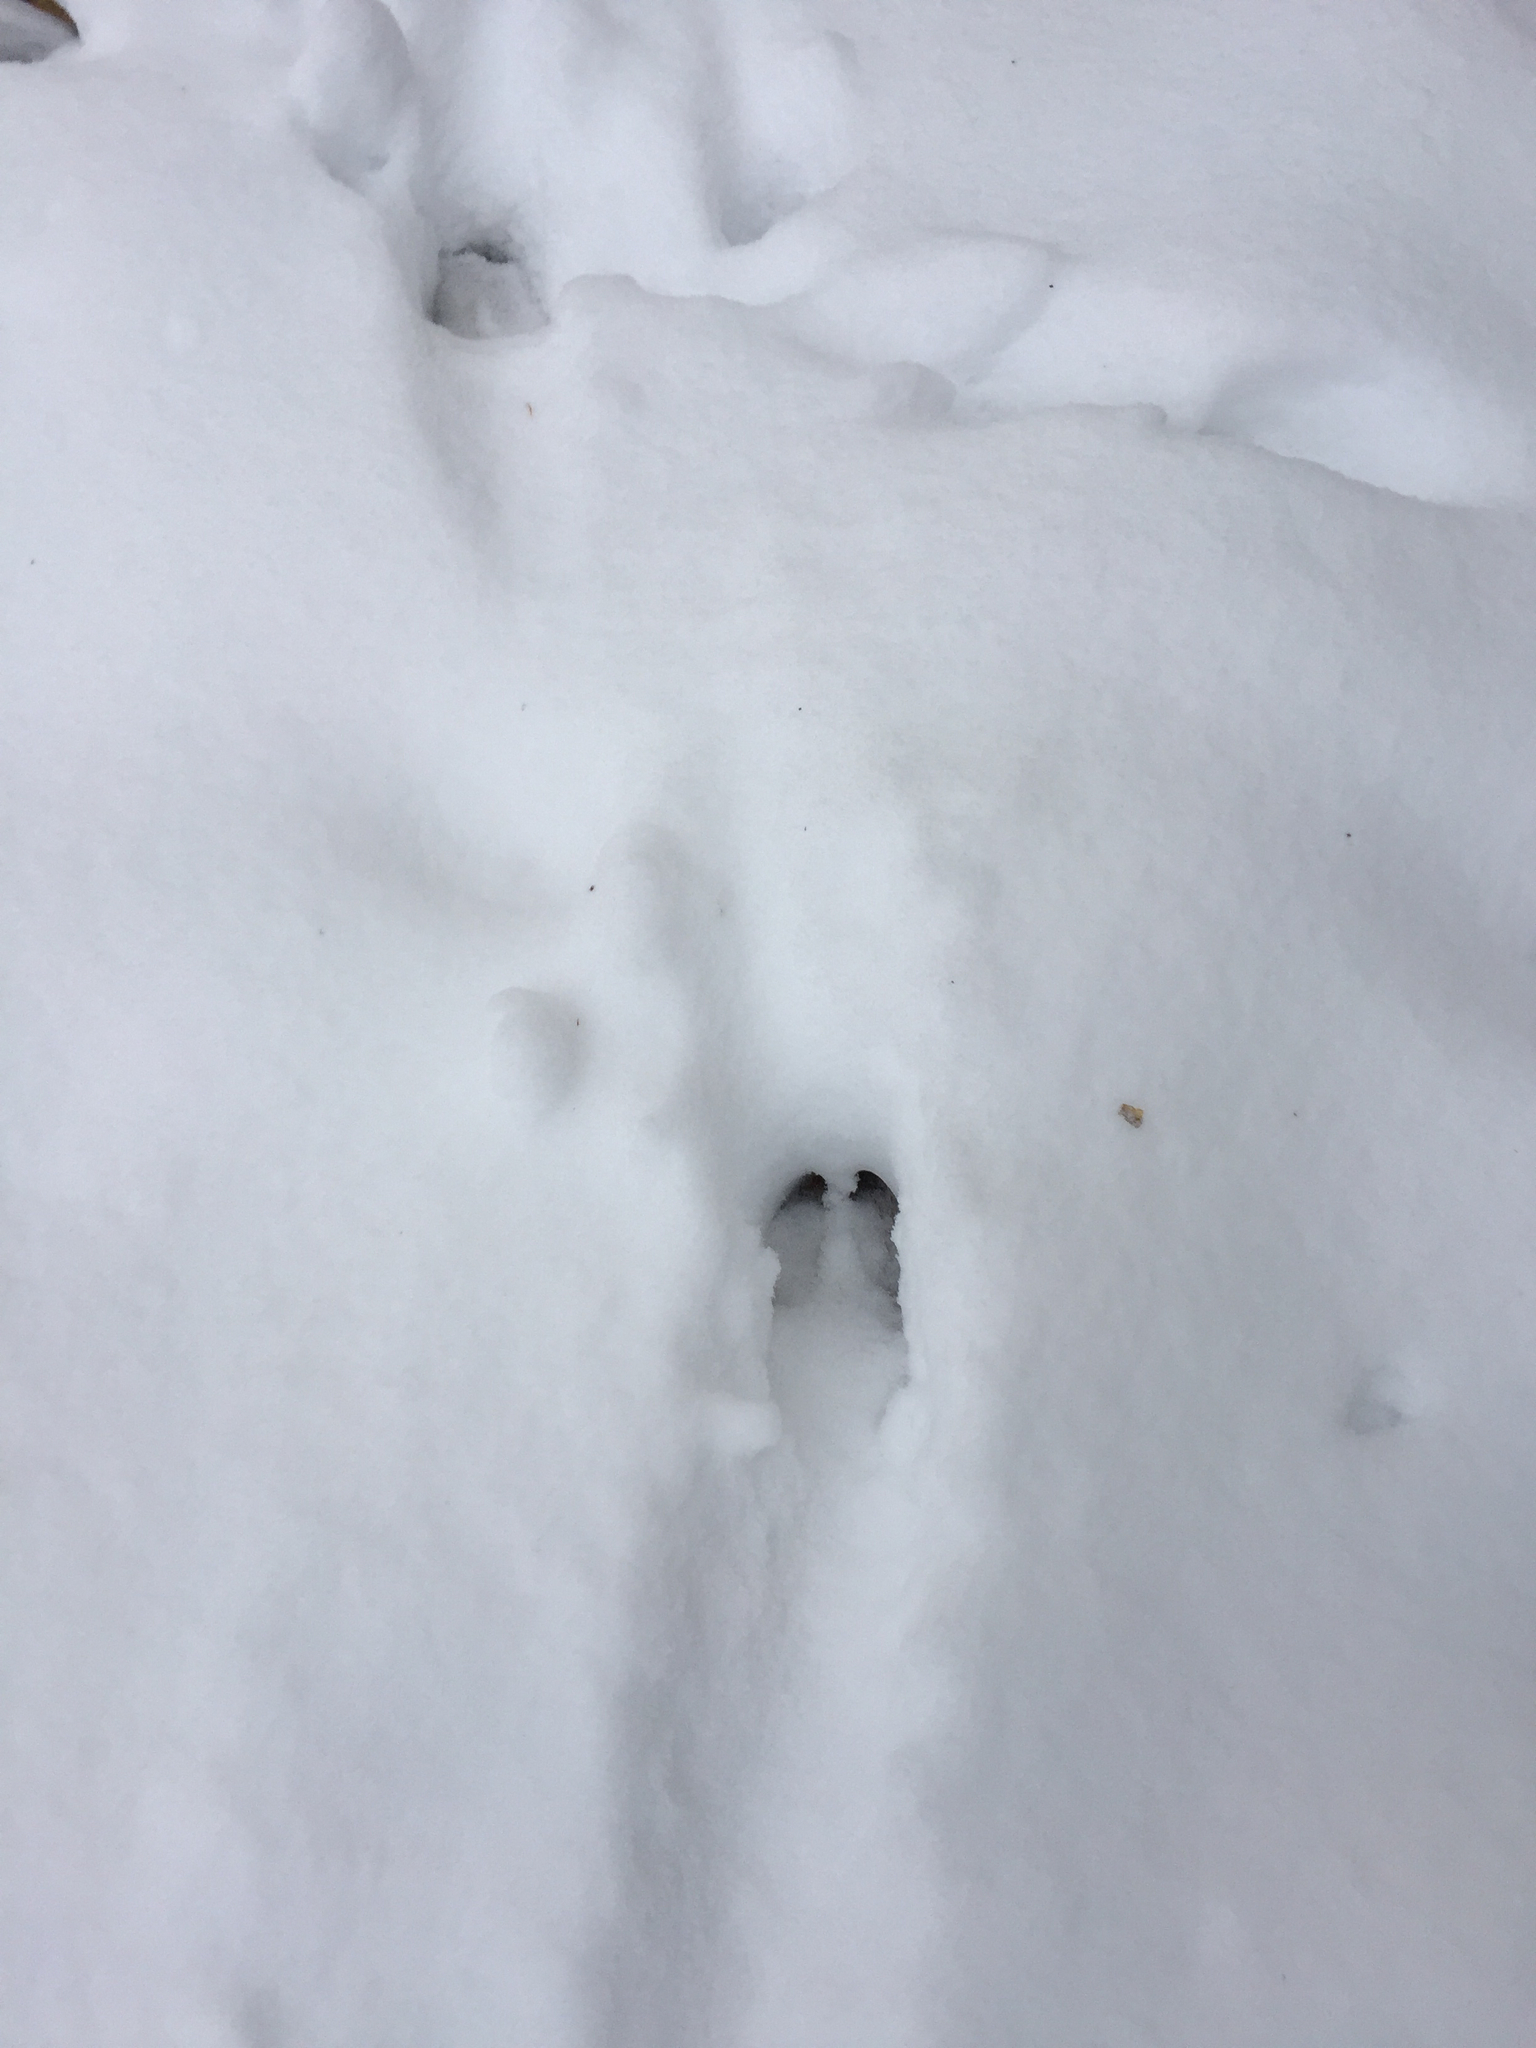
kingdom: Animalia
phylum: Chordata
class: Mammalia
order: Artiodactyla
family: Cervidae
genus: Odocoileus
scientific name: Odocoileus virginianus
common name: White-tailed deer
